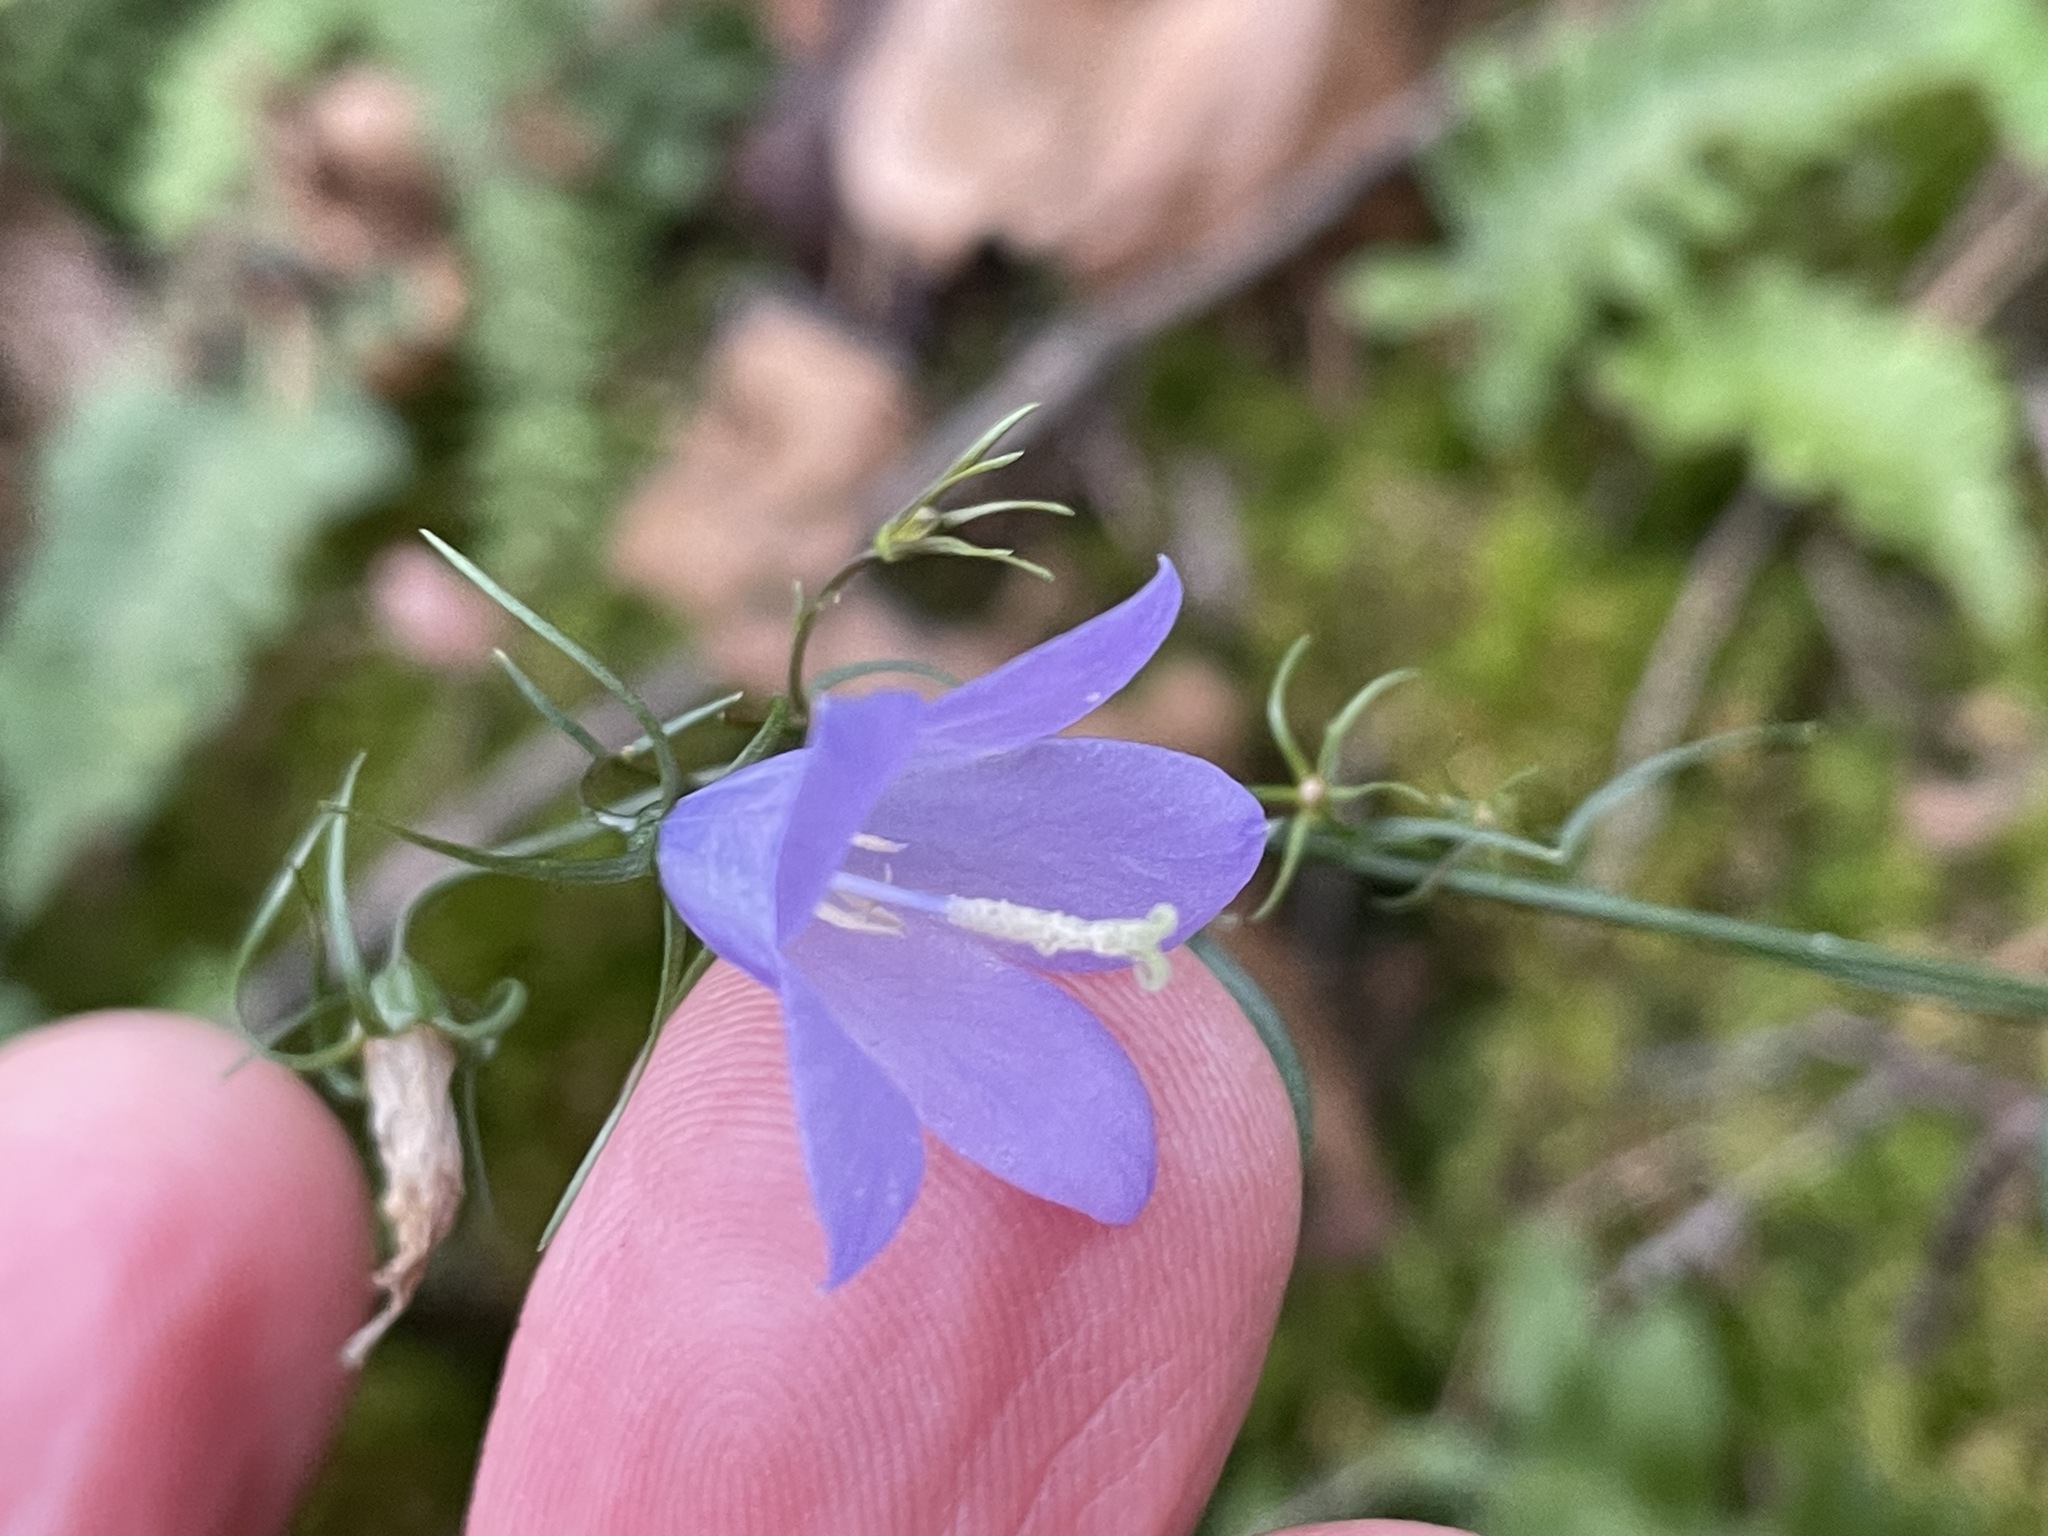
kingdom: Plantae
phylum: Tracheophyta
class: Magnoliopsida
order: Asterales
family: Campanulaceae
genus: Campanula
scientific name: Campanula intercedens
